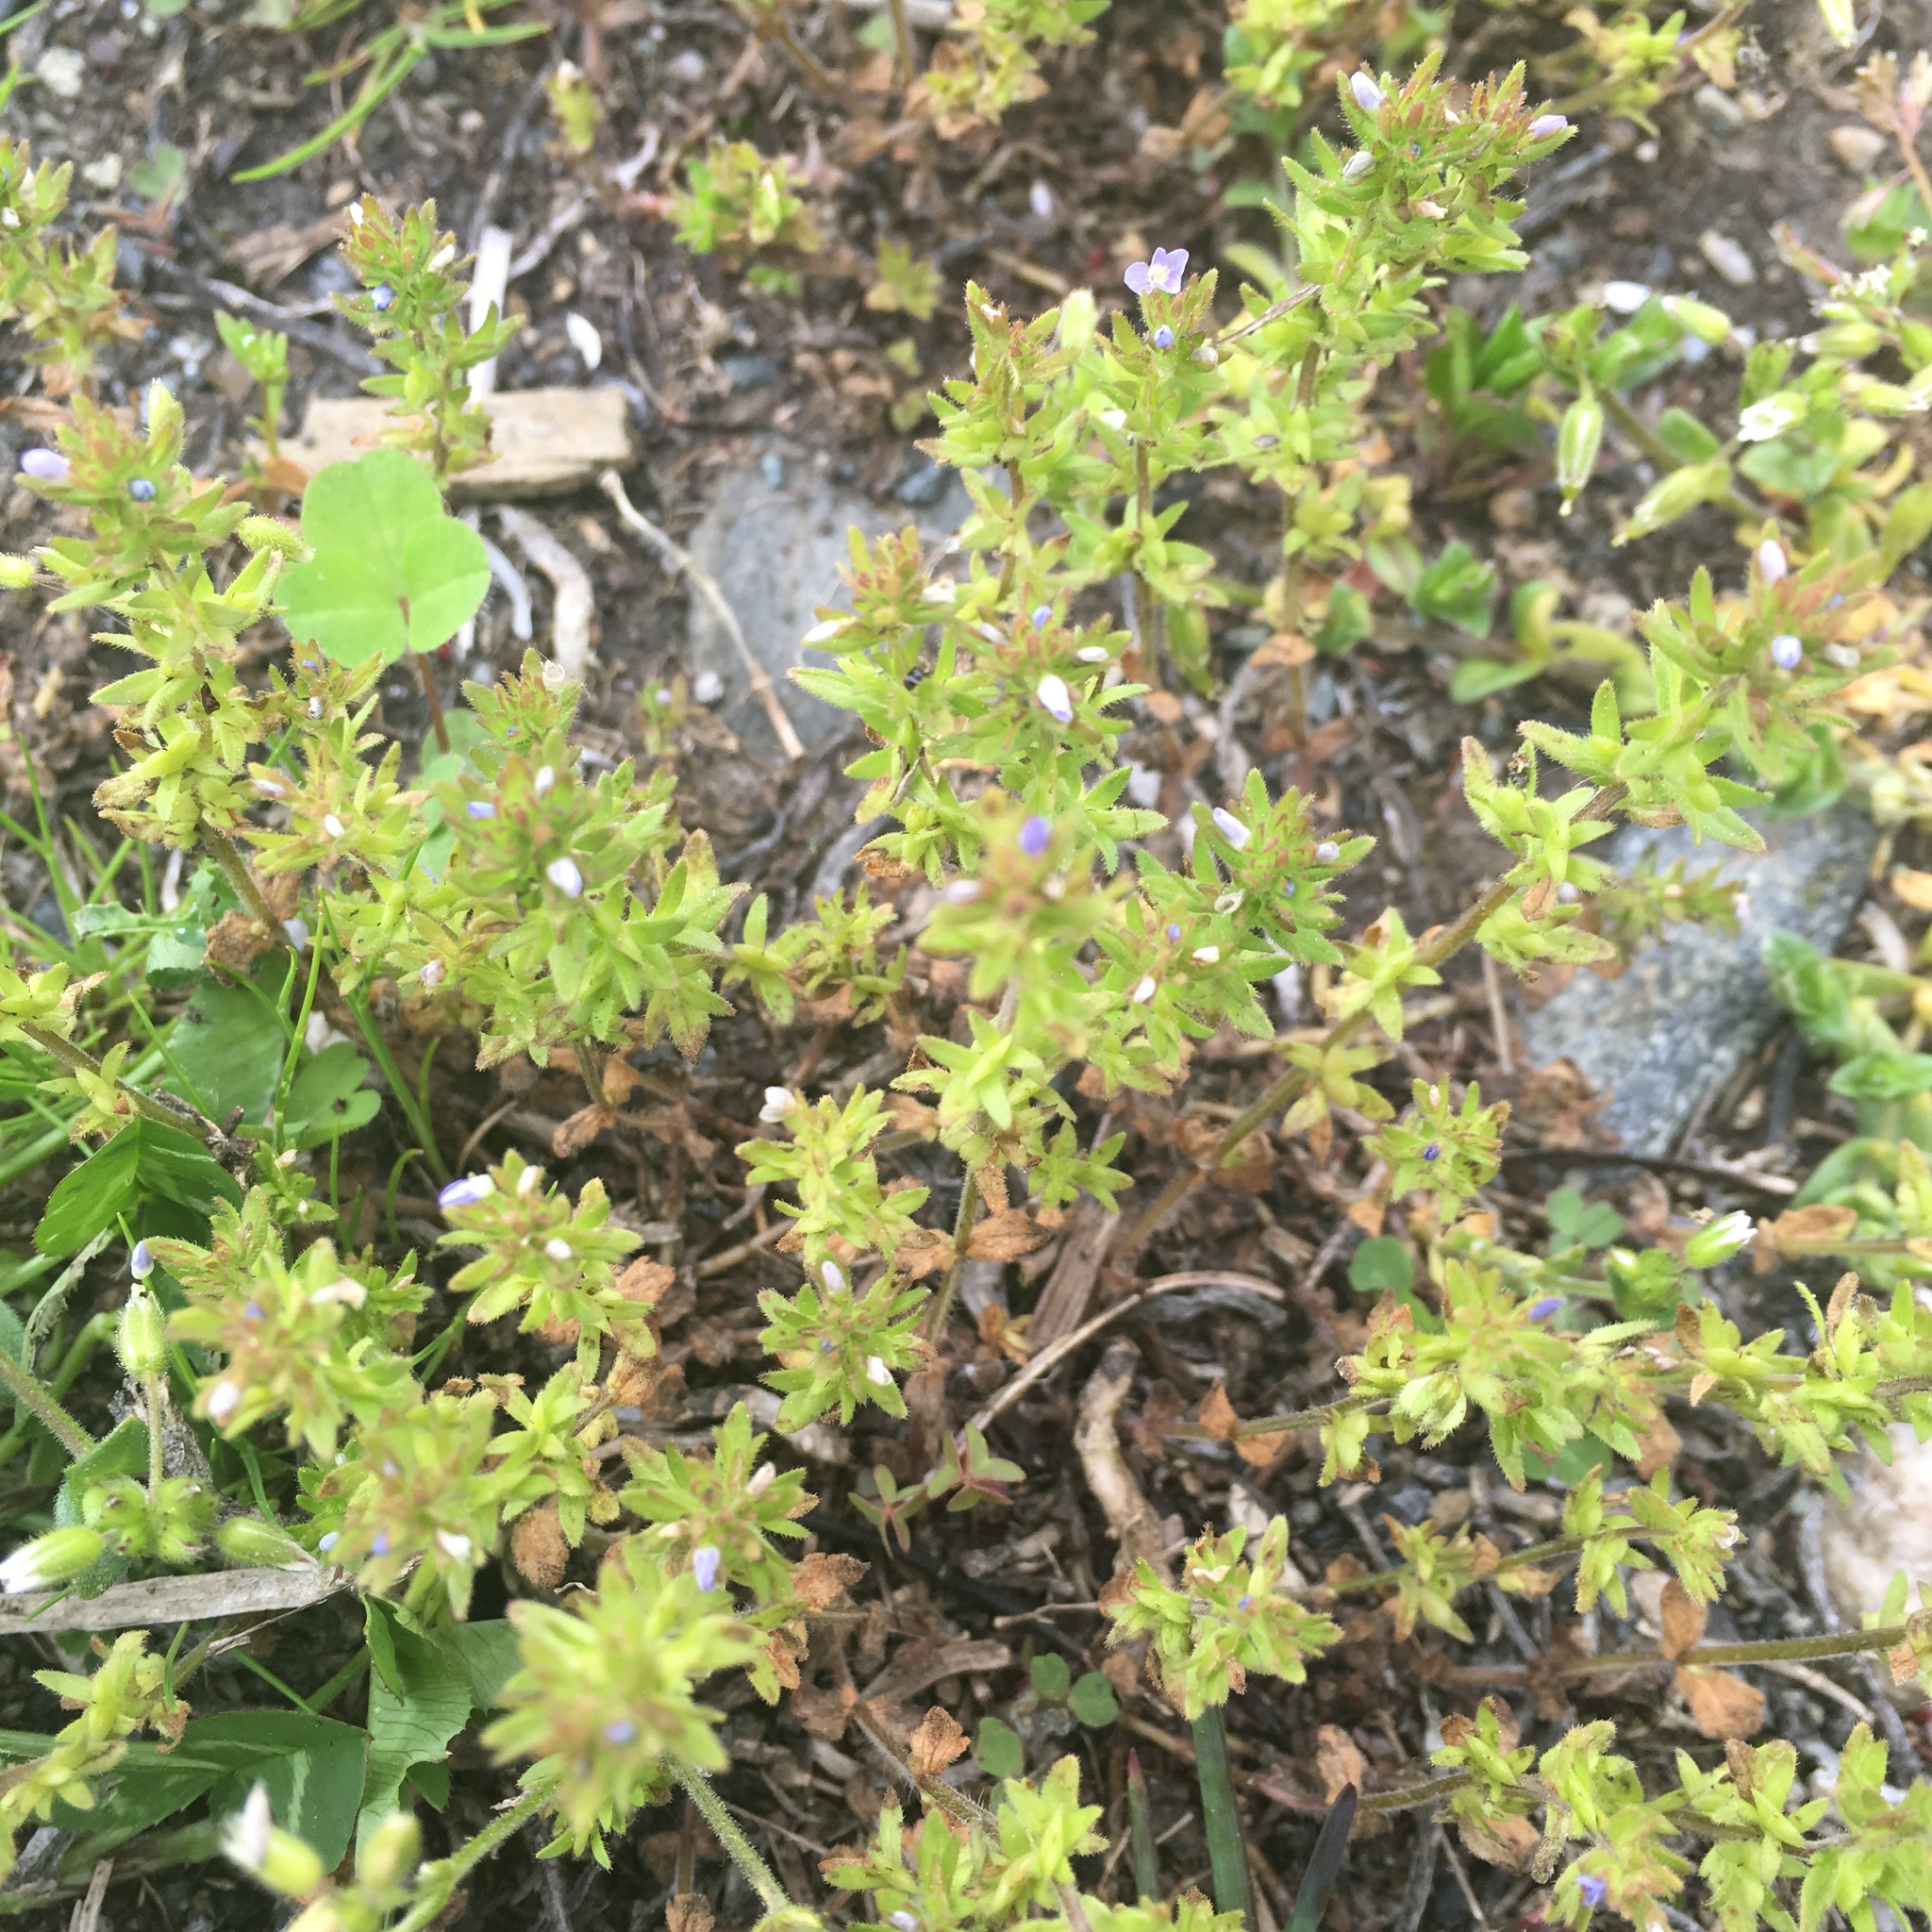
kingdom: Plantae
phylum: Tracheophyta
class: Magnoliopsida
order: Lamiales
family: Plantaginaceae
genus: Veronica
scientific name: Veronica arvensis
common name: Corn speedwell
